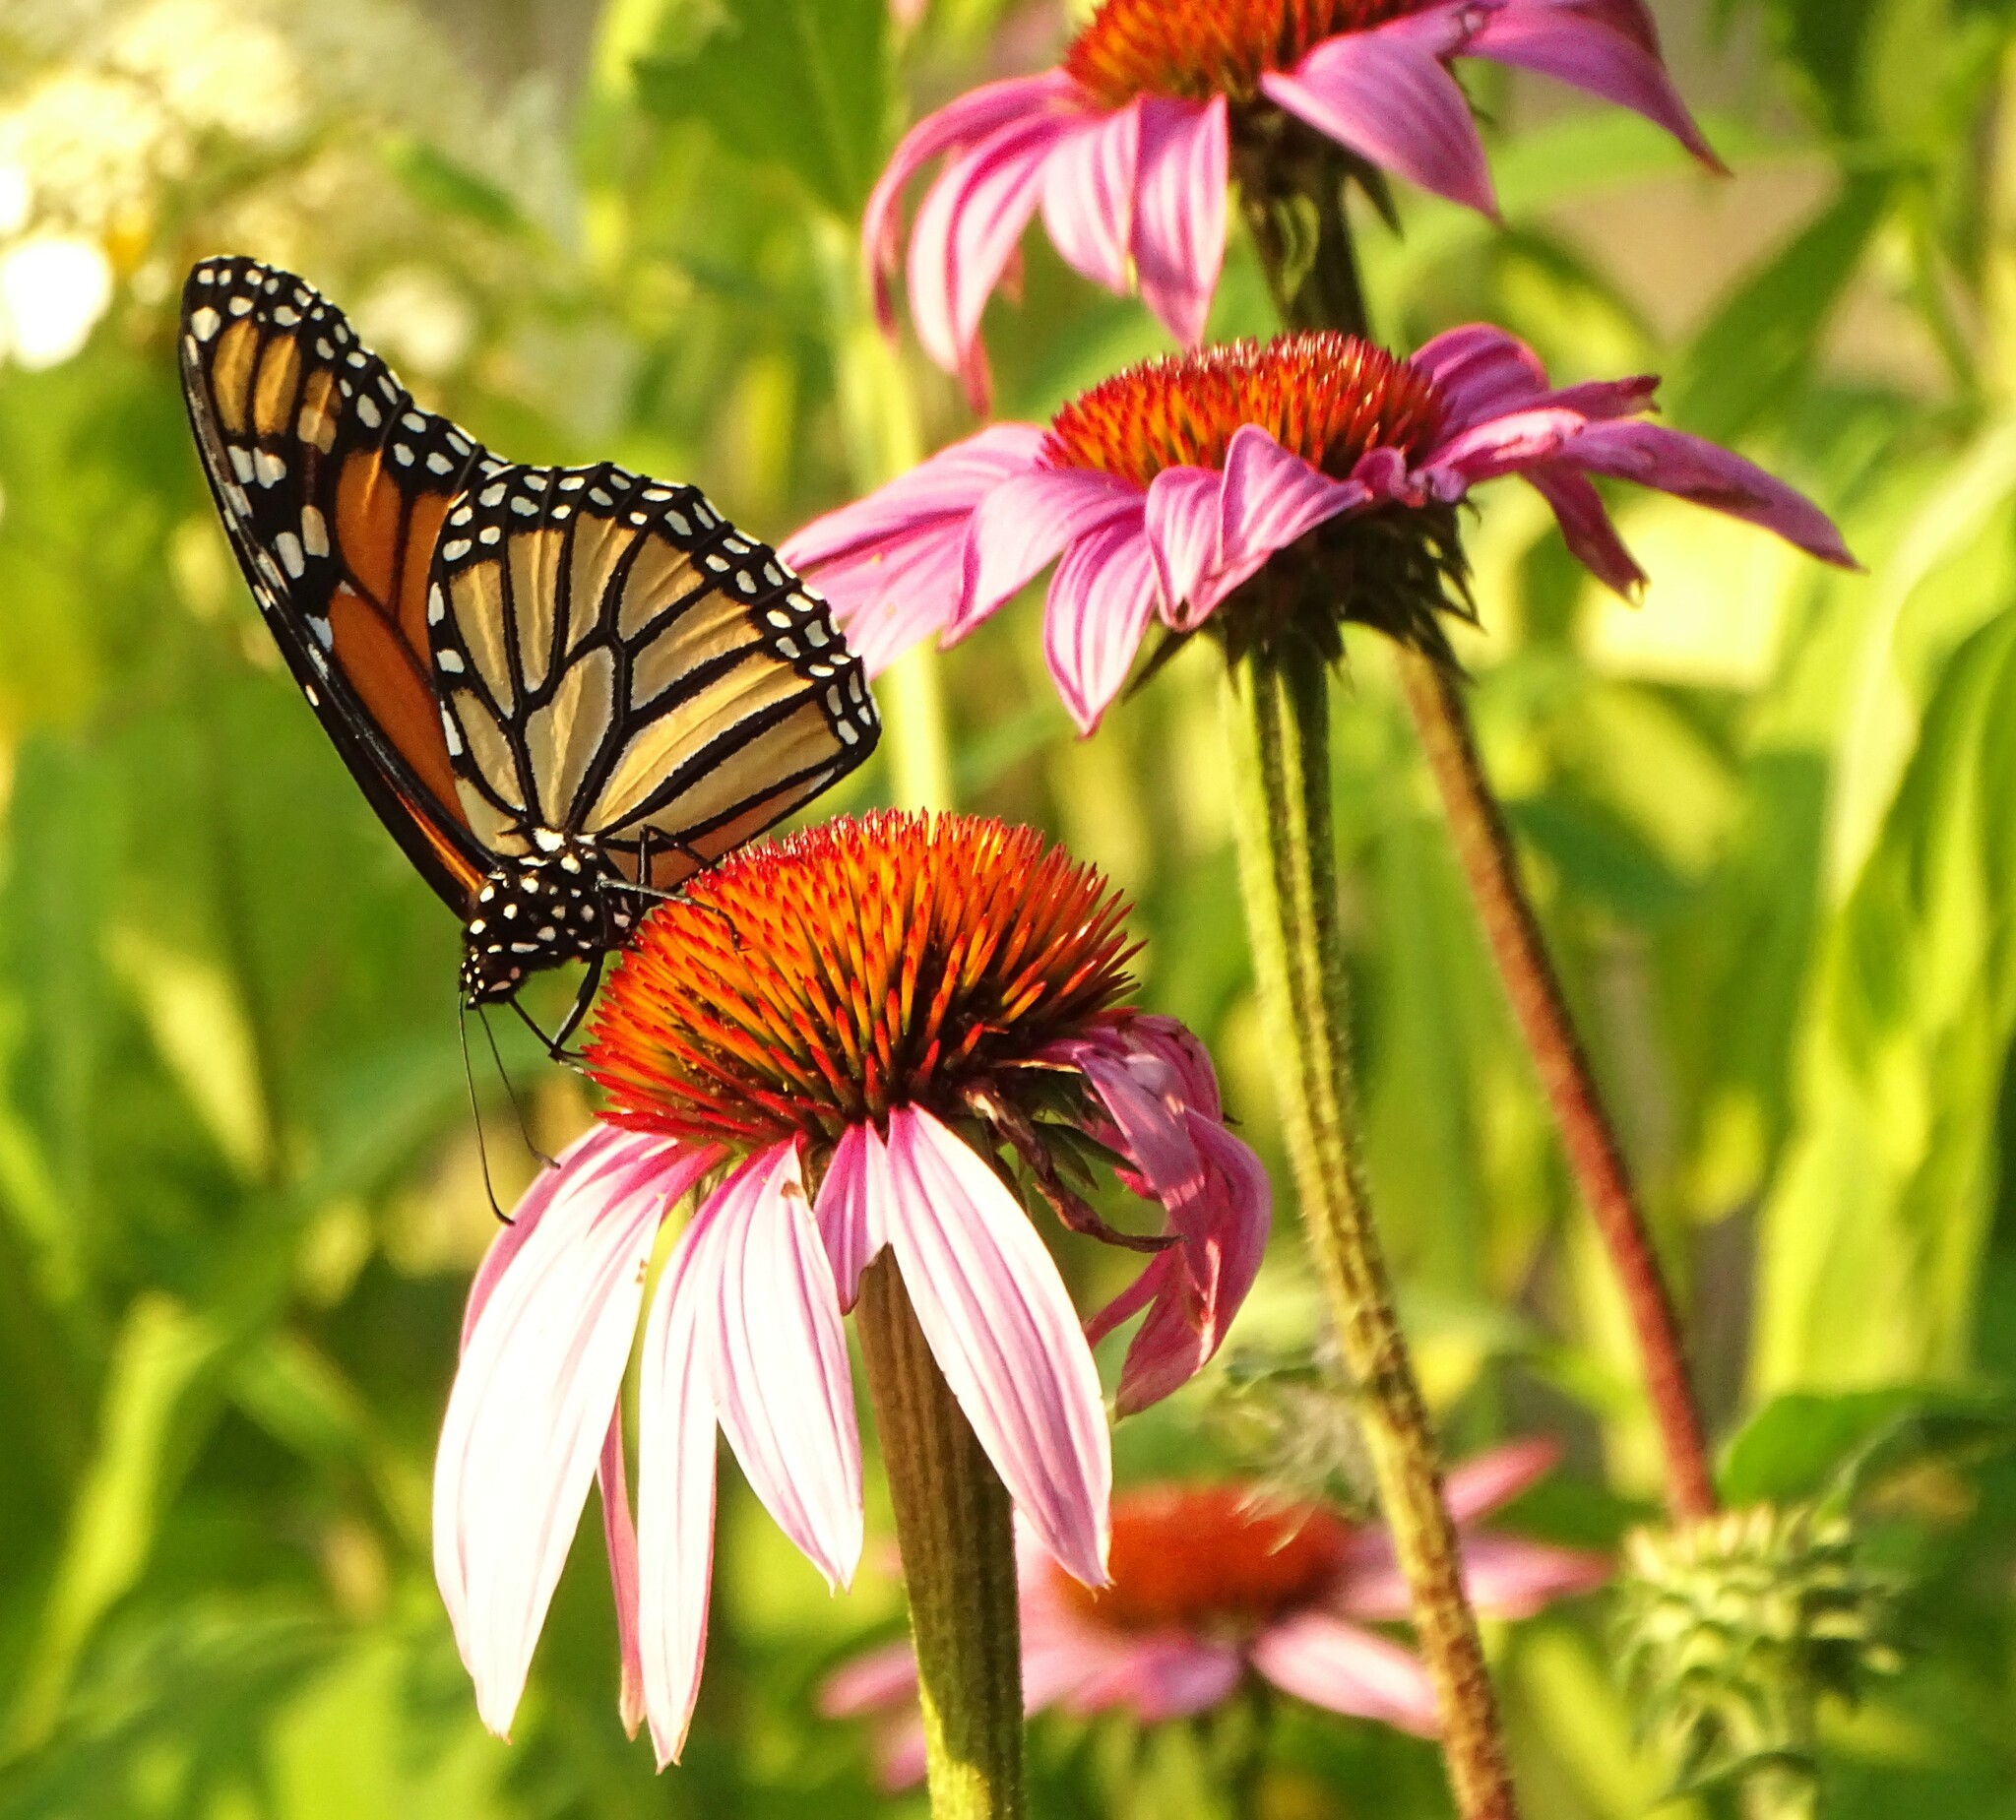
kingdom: Animalia
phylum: Arthropoda
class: Insecta
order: Lepidoptera
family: Nymphalidae
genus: Danaus
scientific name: Danaus plexippus
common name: Monarch
